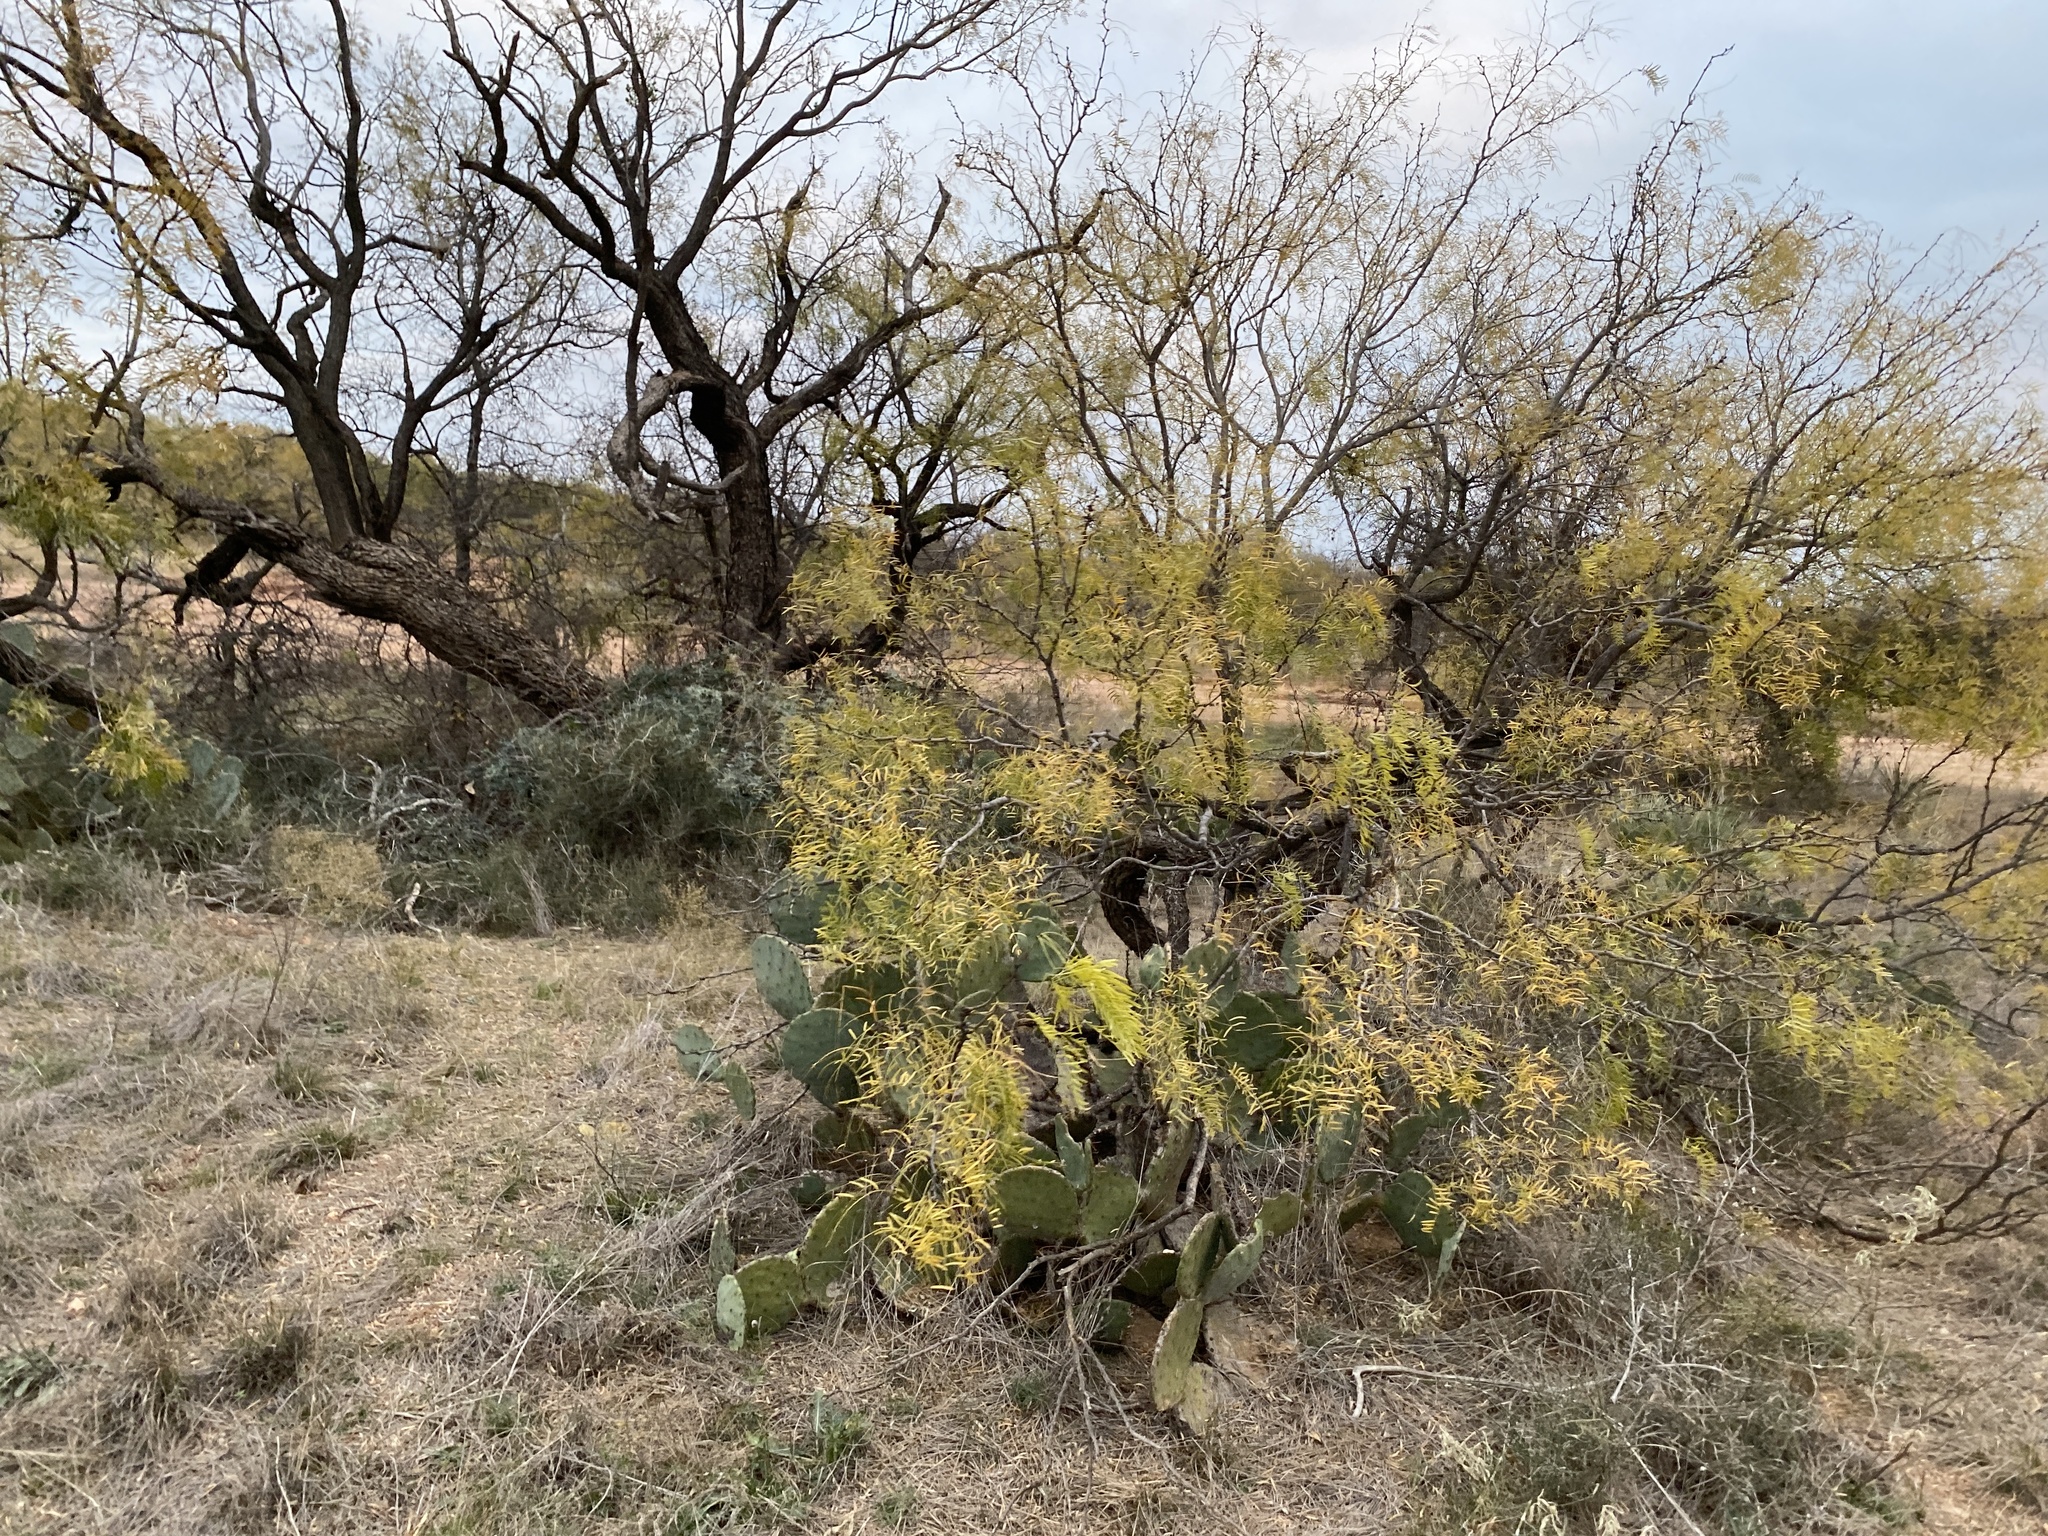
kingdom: Plantae
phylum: Tracheophyta
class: Magnoliopsida
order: Fabales
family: Fabaceae
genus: Prosopis
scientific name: Prosopis glandulosa
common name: Honey mesquite
